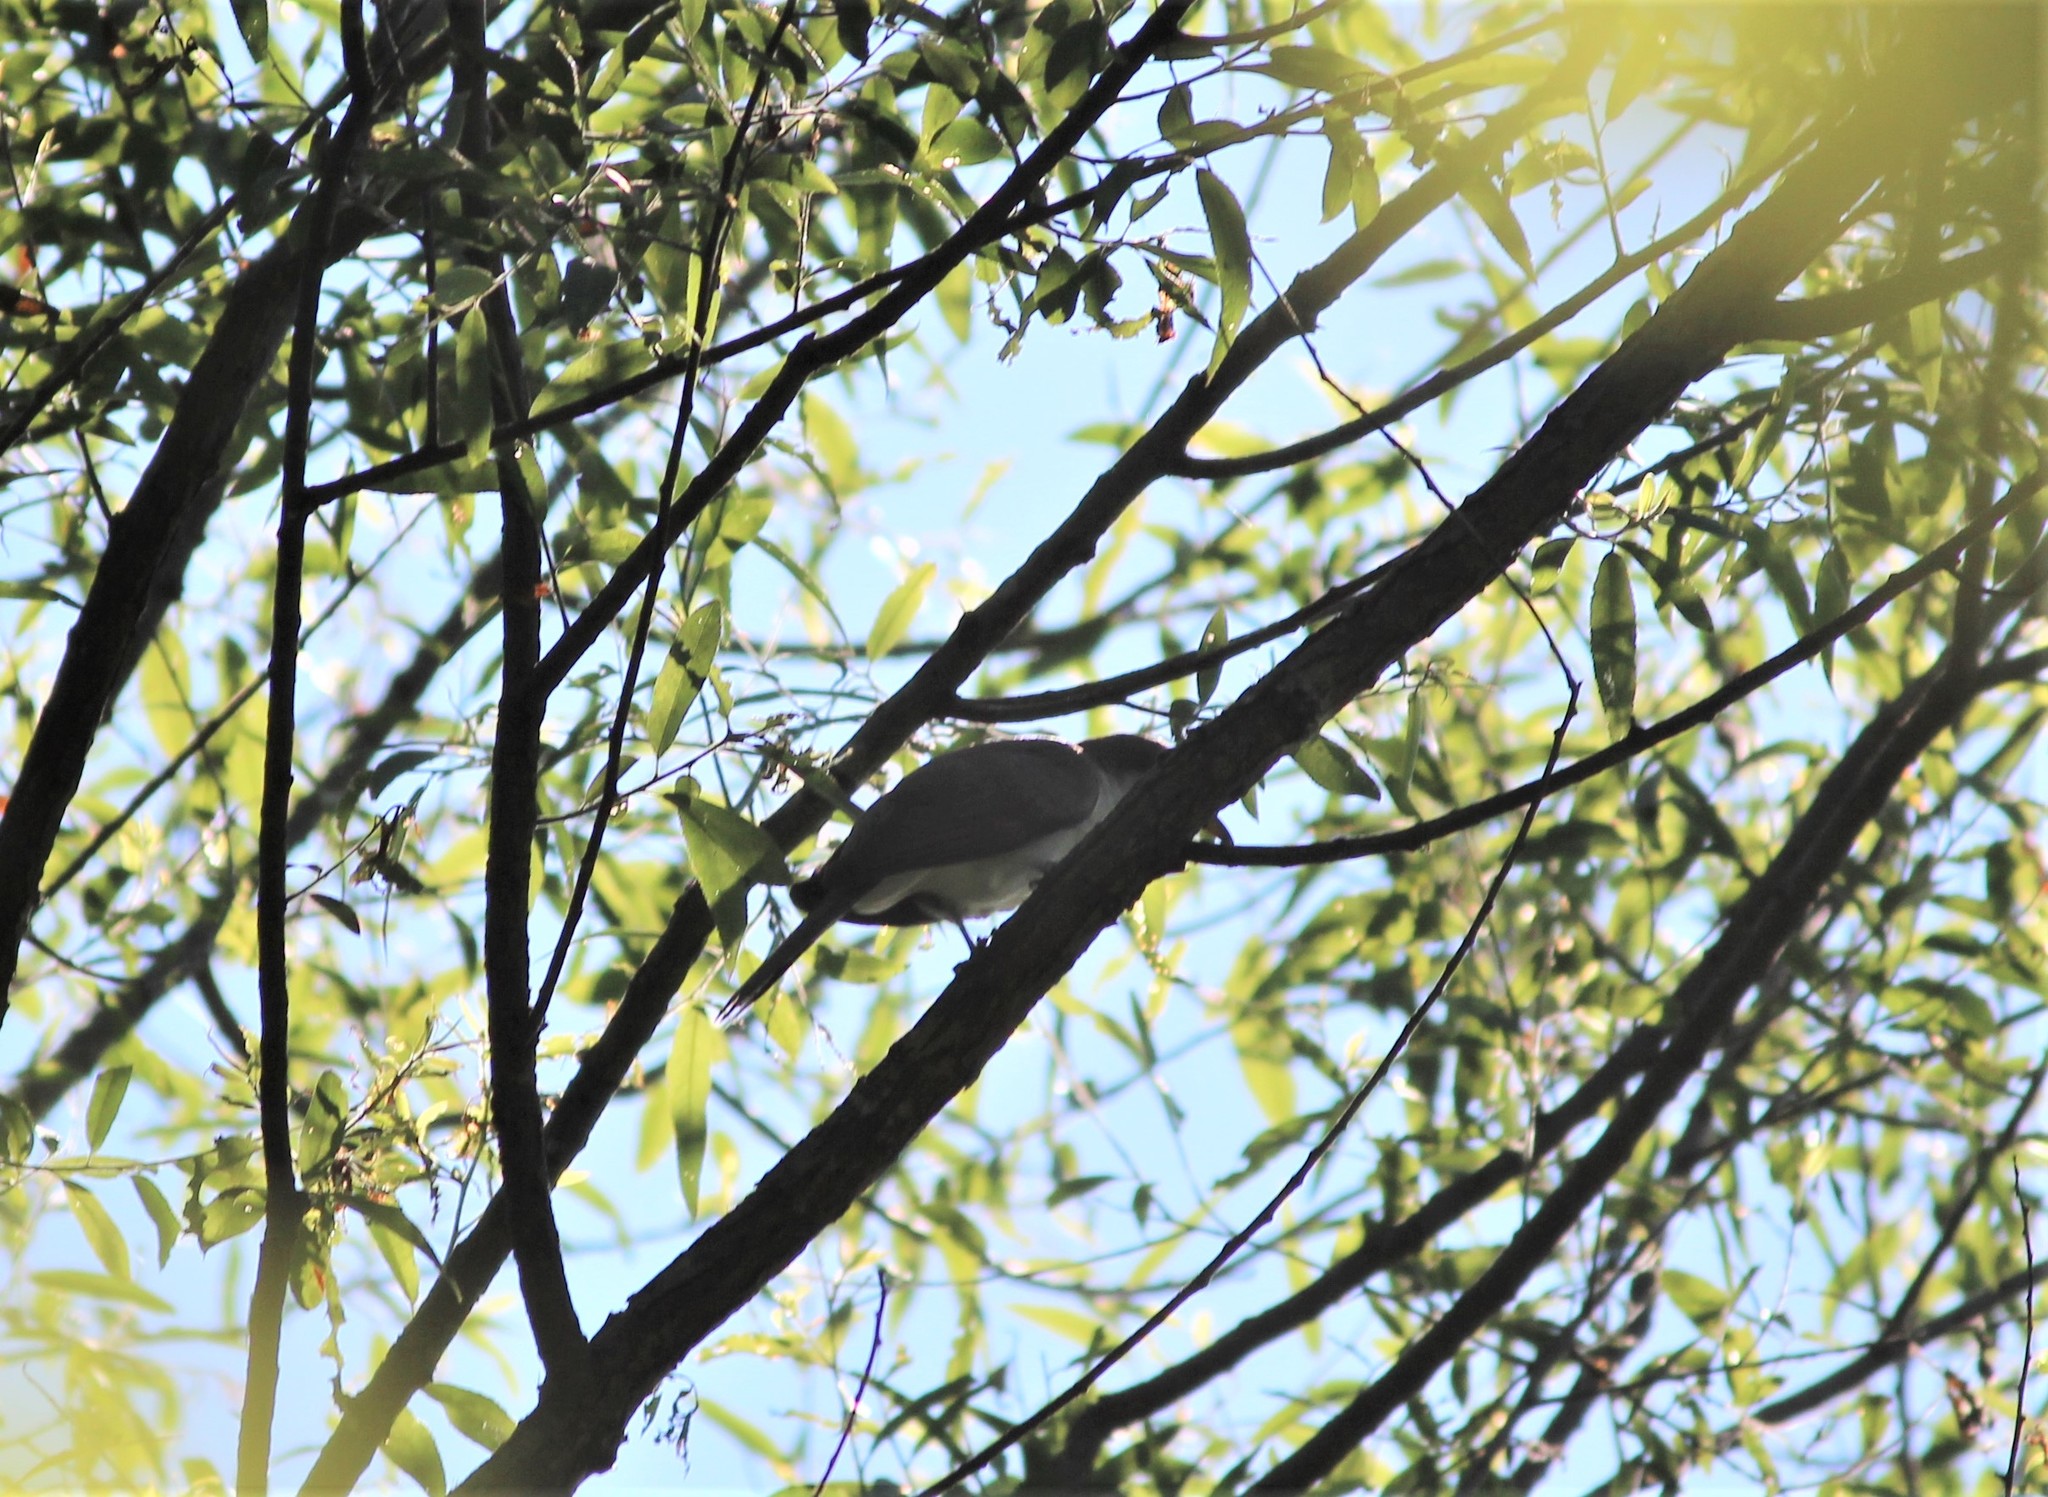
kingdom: Animalia
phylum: Chordata
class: Aves
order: Cuculiformes
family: Cuculidae
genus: Coccyzus
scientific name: Coccyzus americanus
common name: Yellow-billed cuckoo
